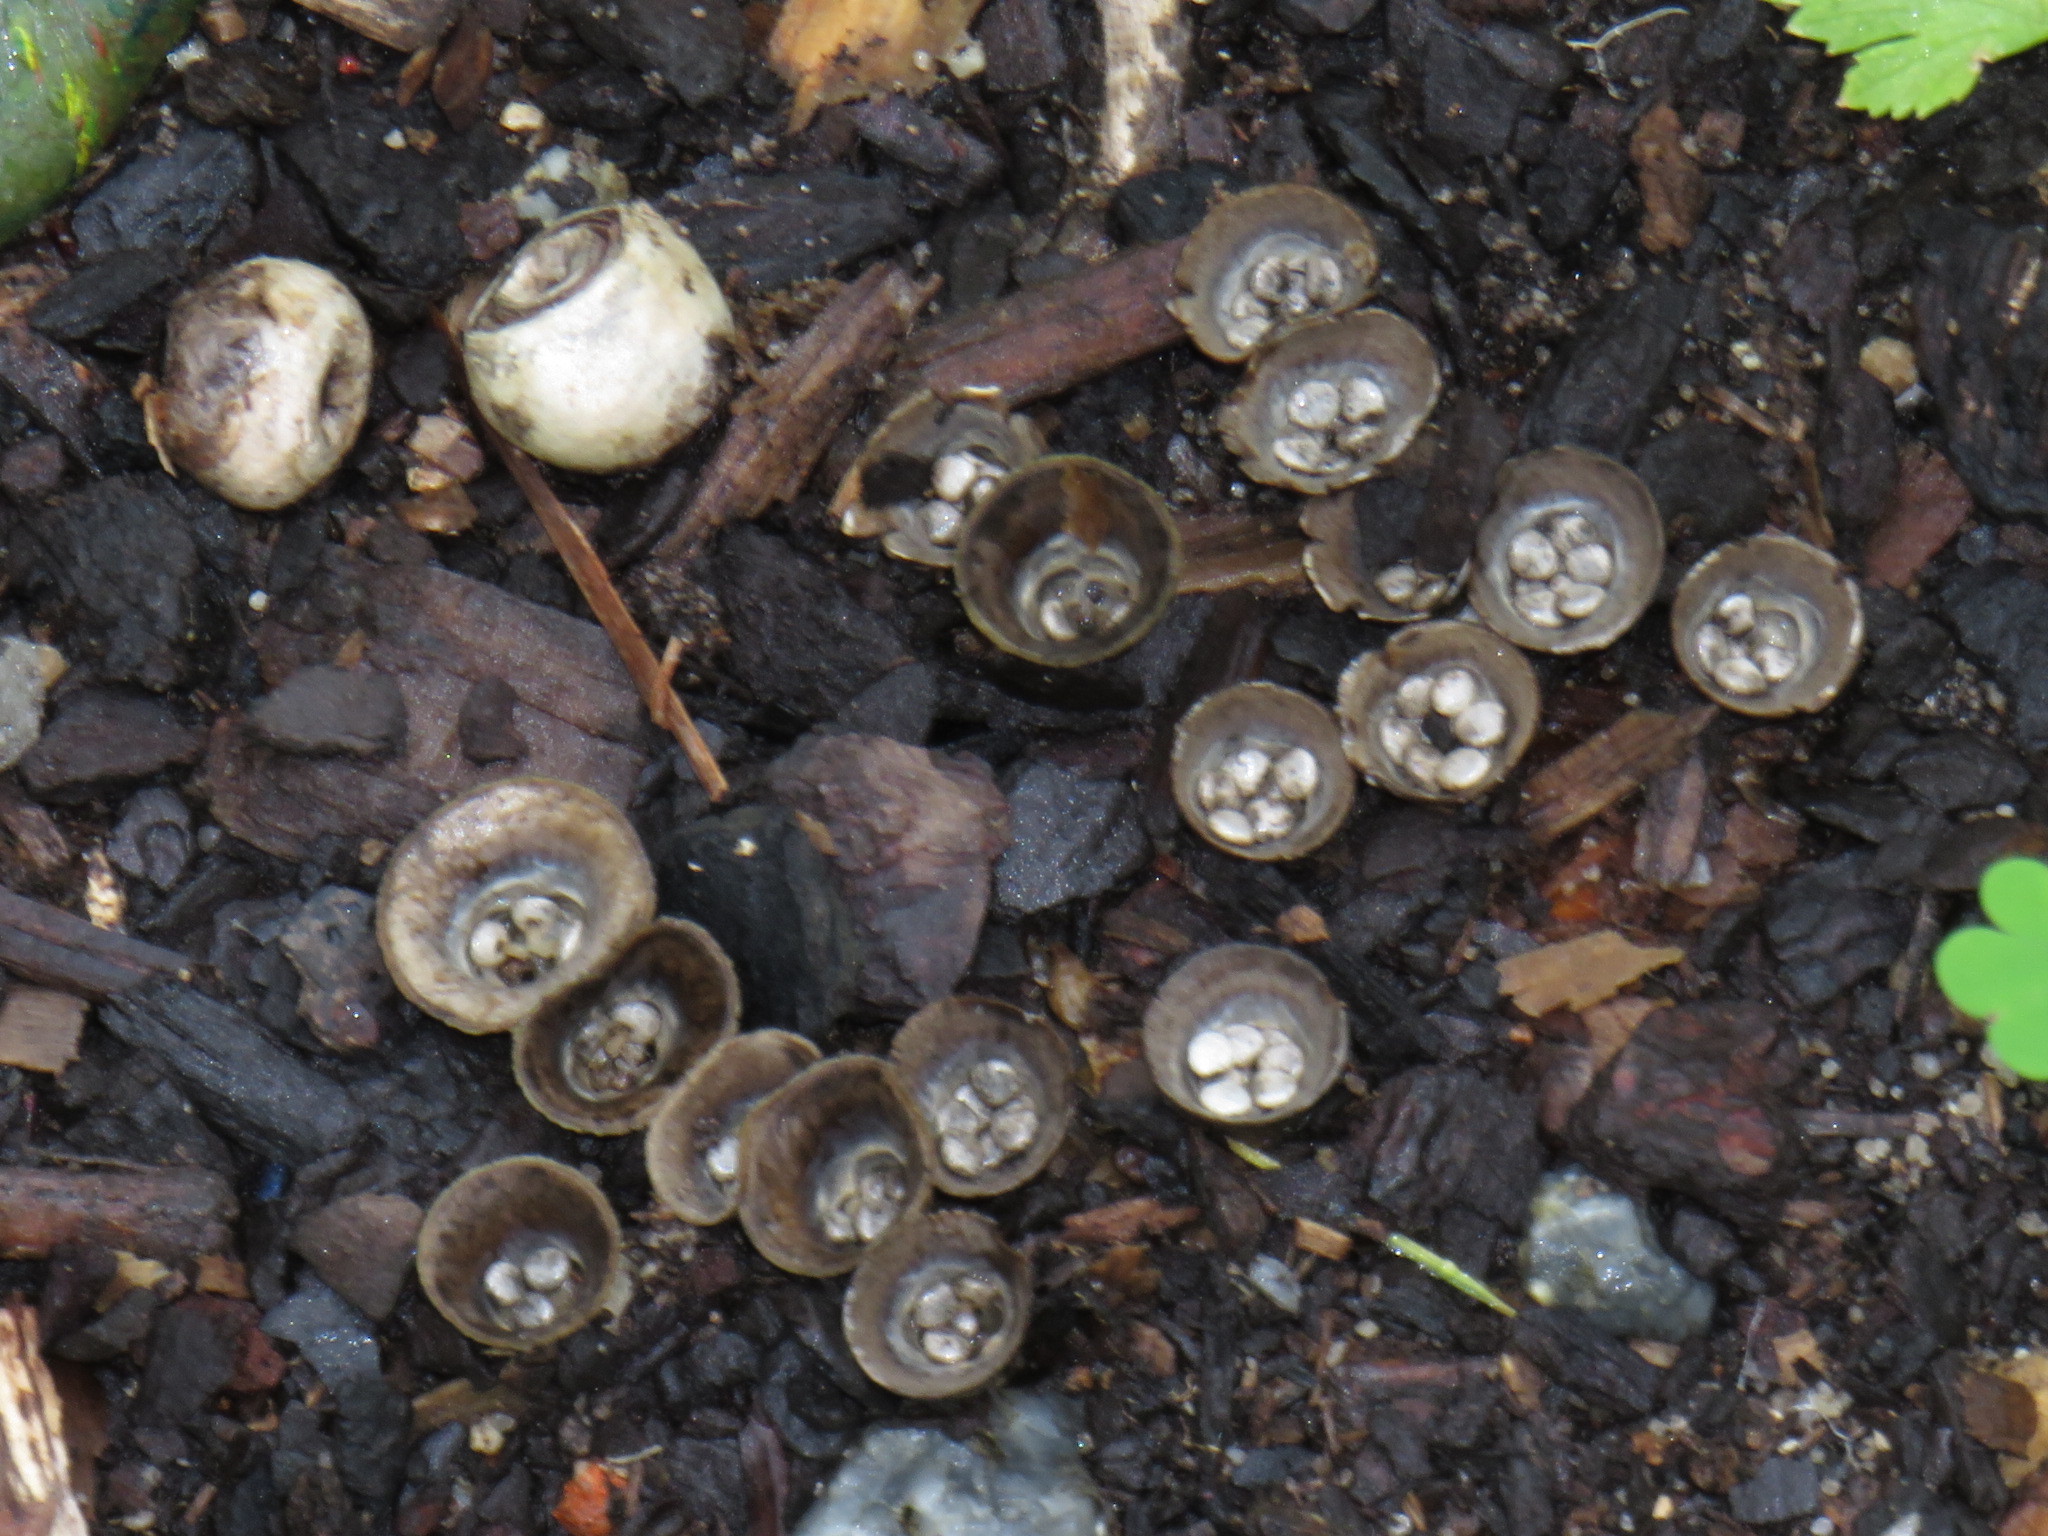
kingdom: Fungi
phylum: Basidiomycota
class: Agaricomycetes
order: Agaricales
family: Agaricaceae
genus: Cyathus
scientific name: Cyathus olla
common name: Field bird's nest
